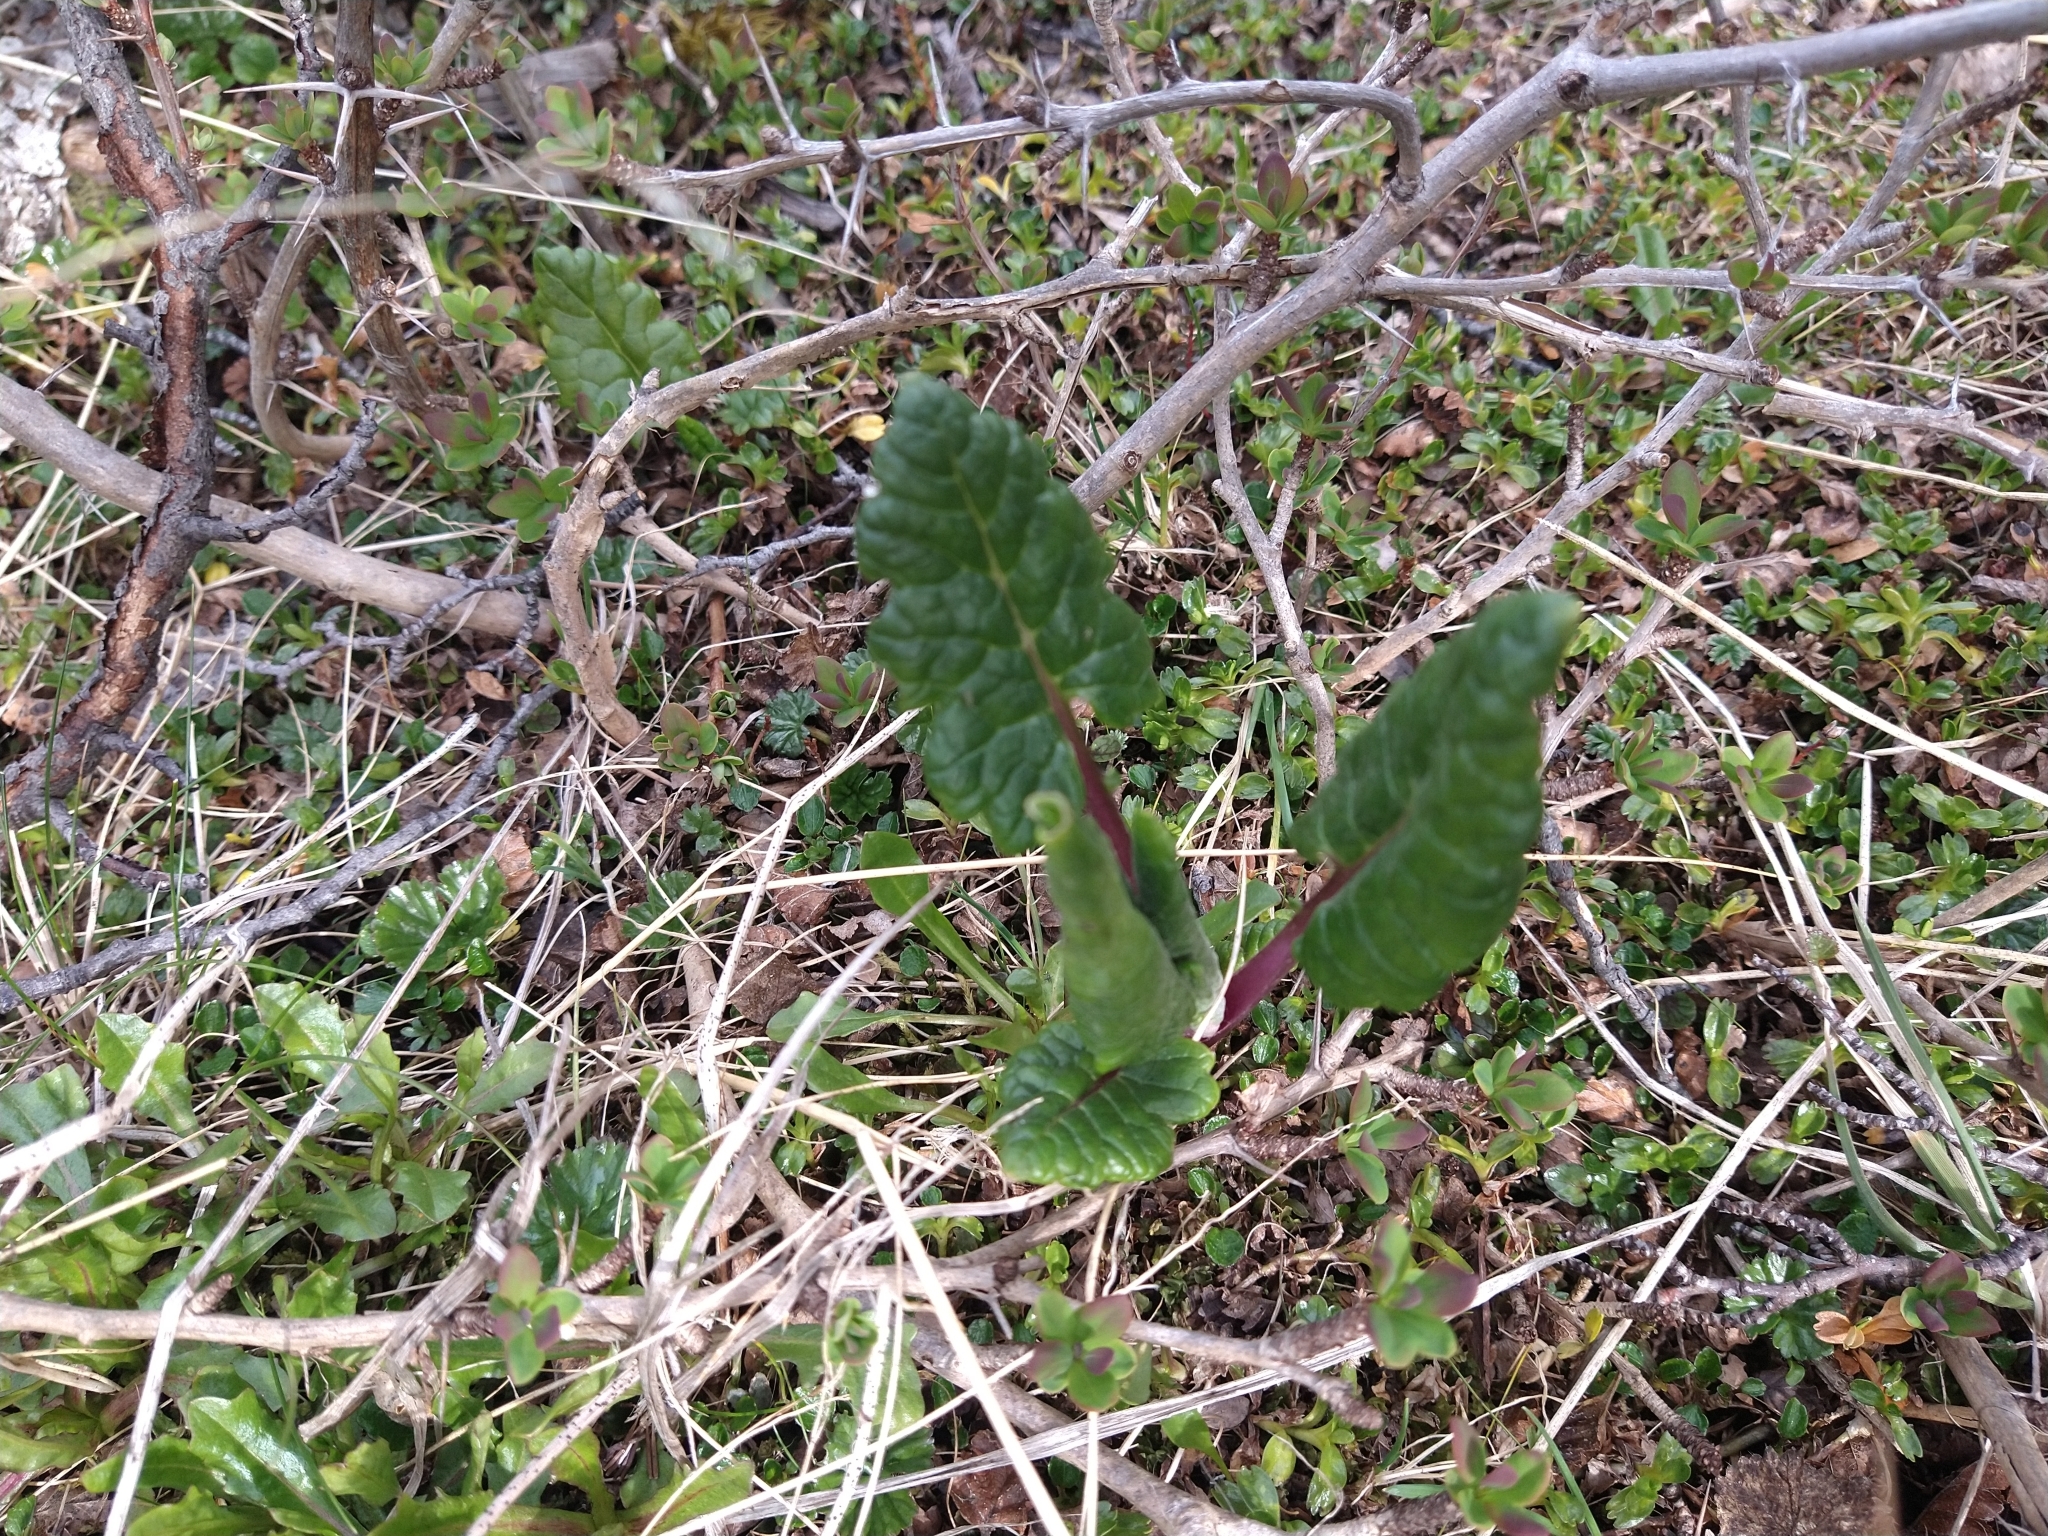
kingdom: Plantae
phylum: Tracheophyta
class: Magnoliopsida
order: Asterales
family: Asteraceae
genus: Iocenes
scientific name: Iocenes virens
